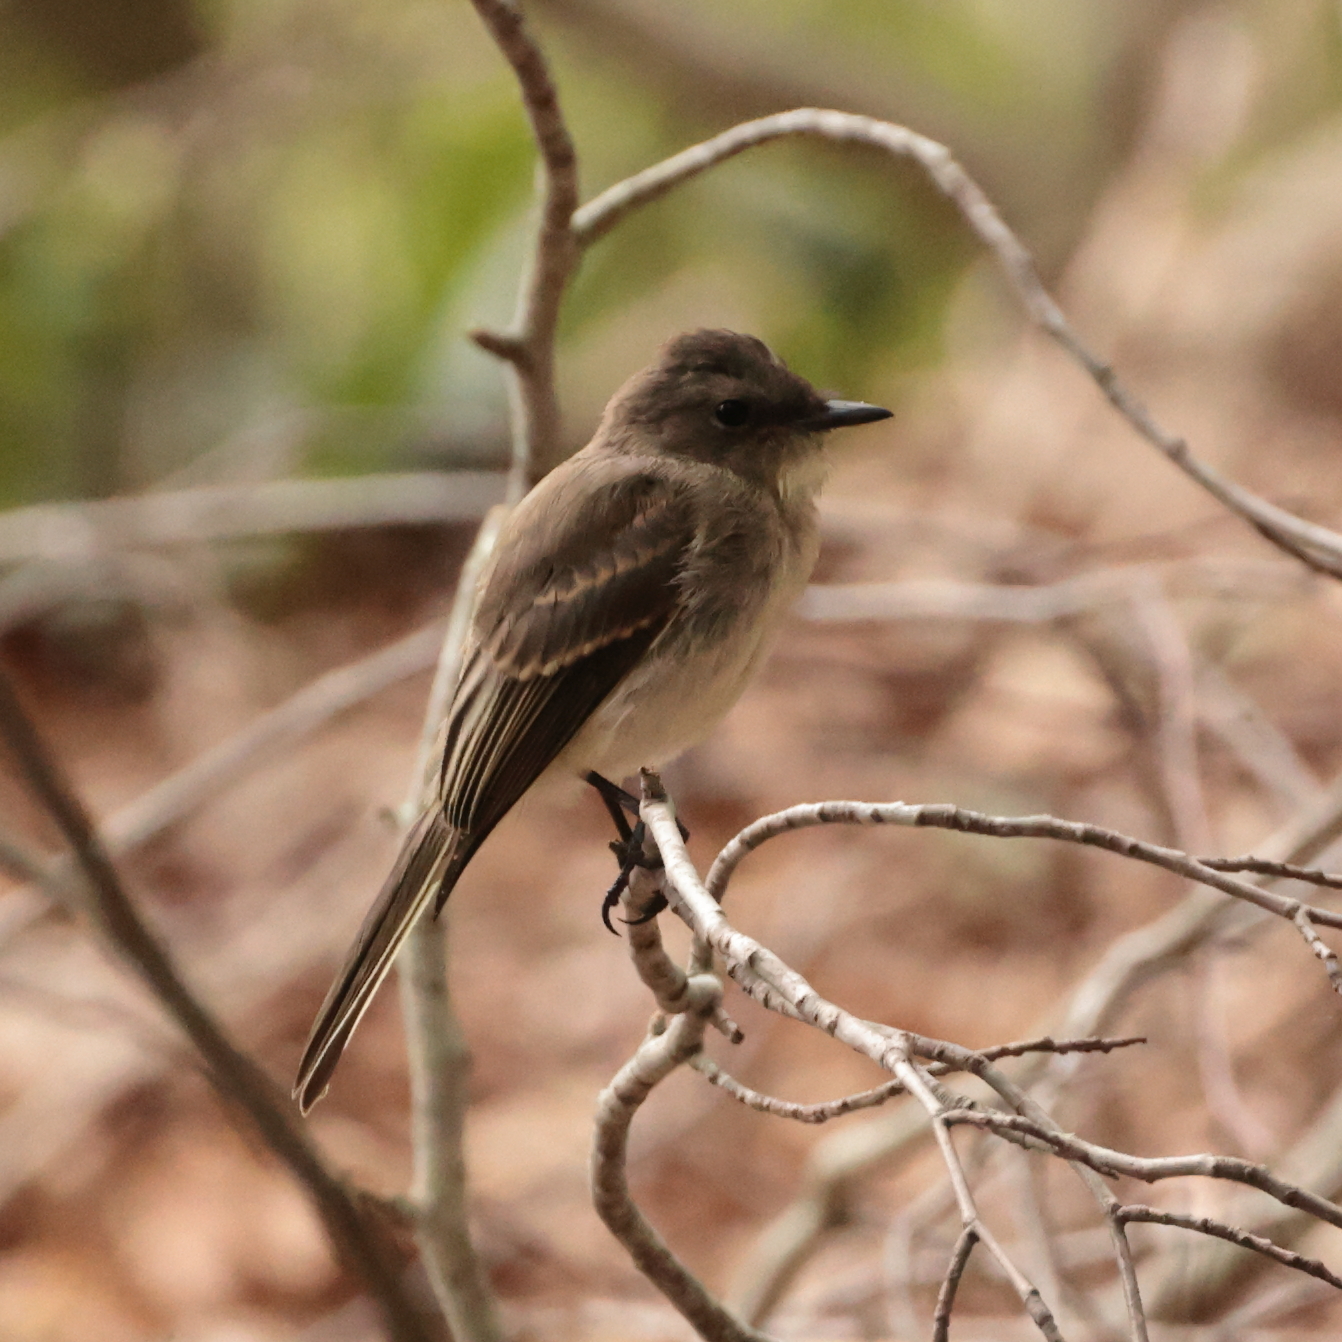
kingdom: Animalia
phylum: Chordata
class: Aves
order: Passeriformes
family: Tyrannidae
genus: Sayornis
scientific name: Sayornis phoebe
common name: Eastern phoebe
